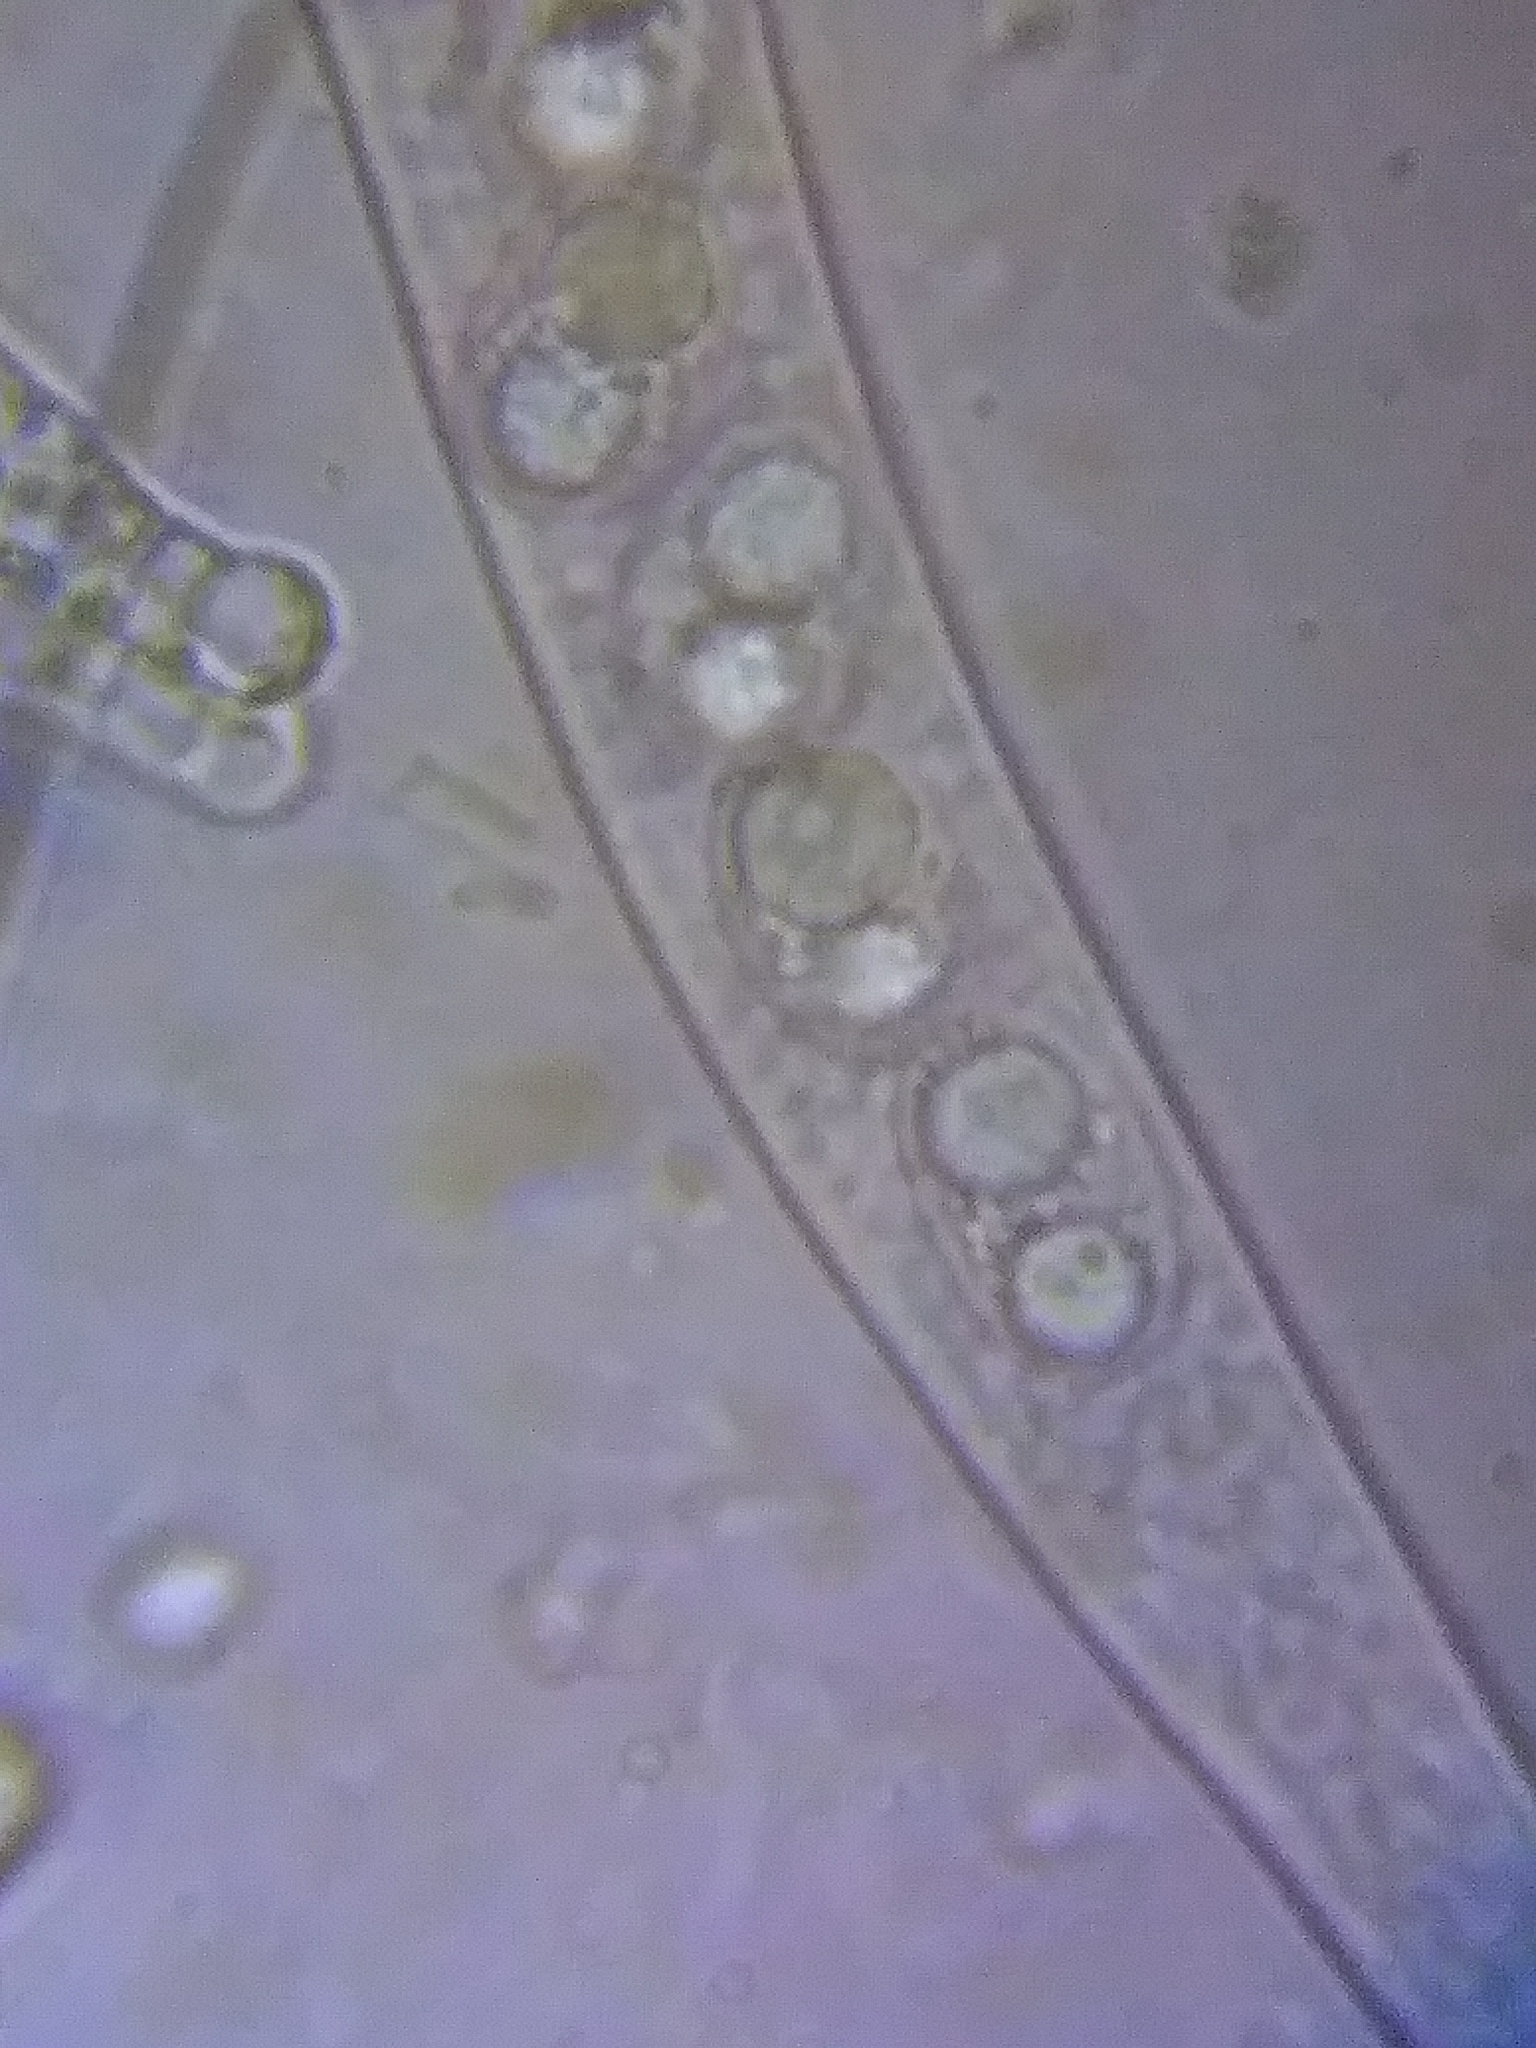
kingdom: Fungi
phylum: Ascomycota
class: Leotiomycetes
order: Helotiales
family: Cenangiaceae
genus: Velutarina
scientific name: Velutarina rufo-olivacea
